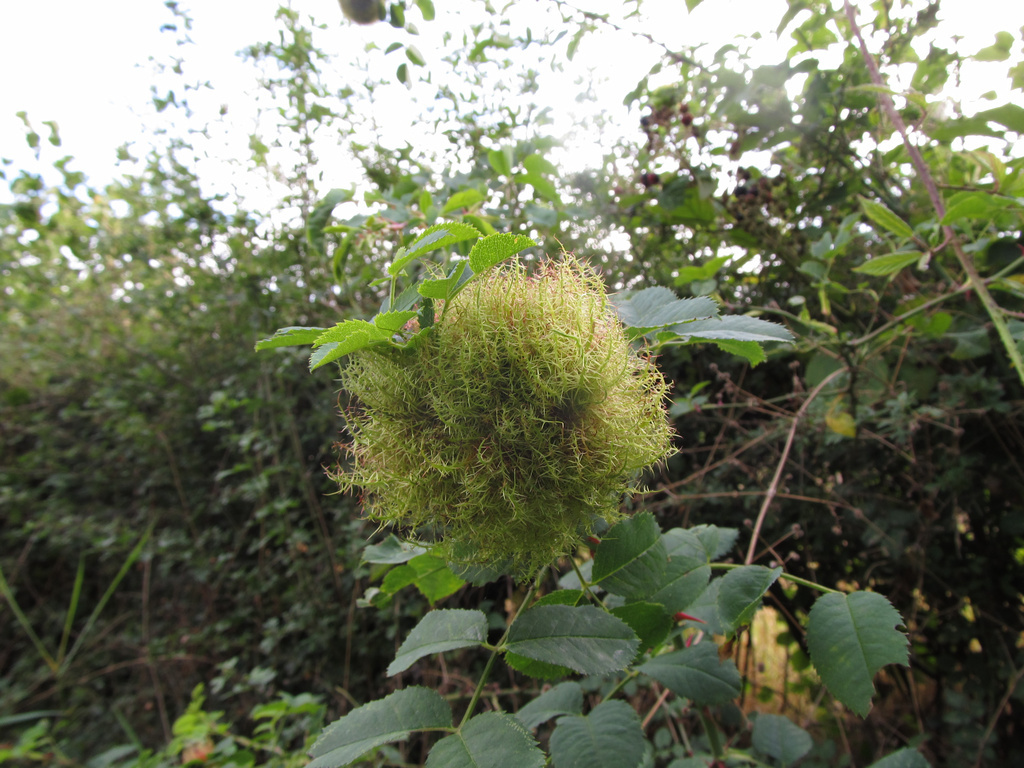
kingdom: Animalia
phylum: Arthropoda
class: Insecta
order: Hymenoptera
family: Cynipidae
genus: Diplolepis
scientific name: Diplolepis rosae
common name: Bedeguar gall
